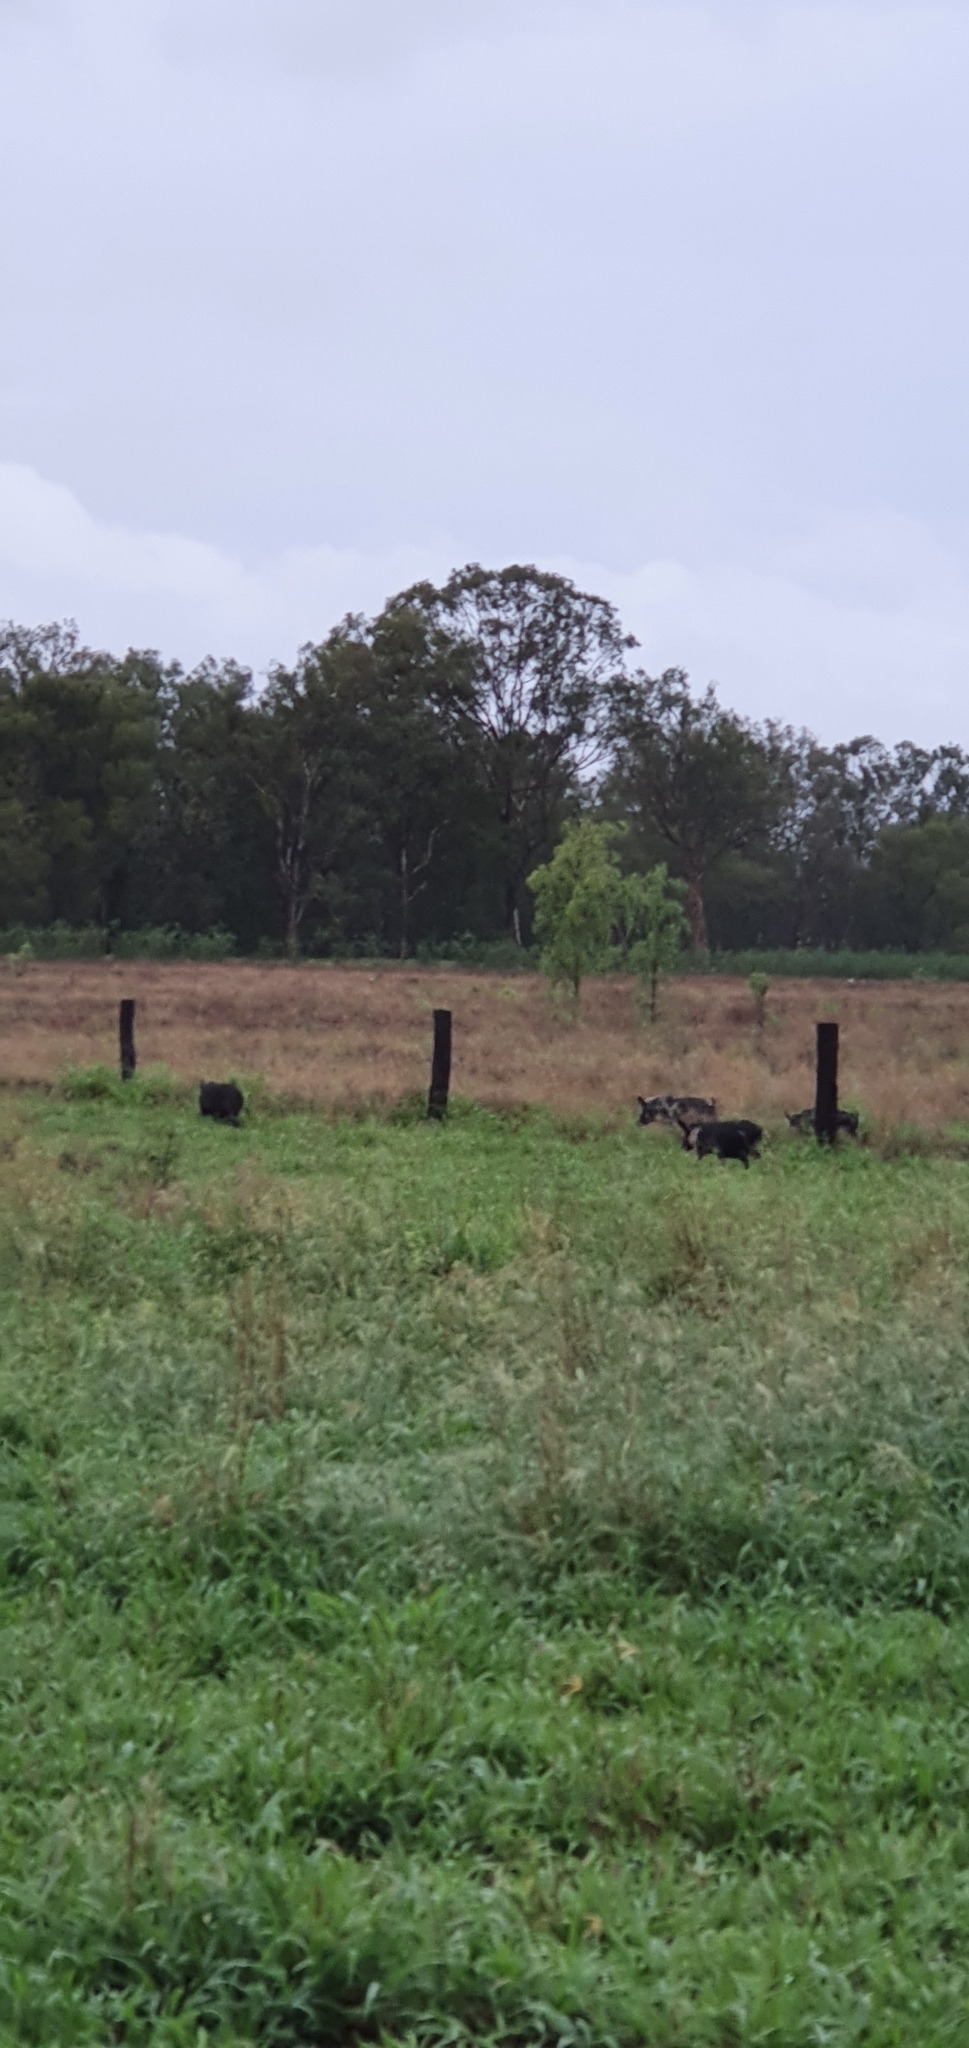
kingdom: Animalia
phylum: Chordata
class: Mammalia
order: Artiodactyla
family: Suidae
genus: Sus
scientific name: Sus scrofa
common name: Wild boar
